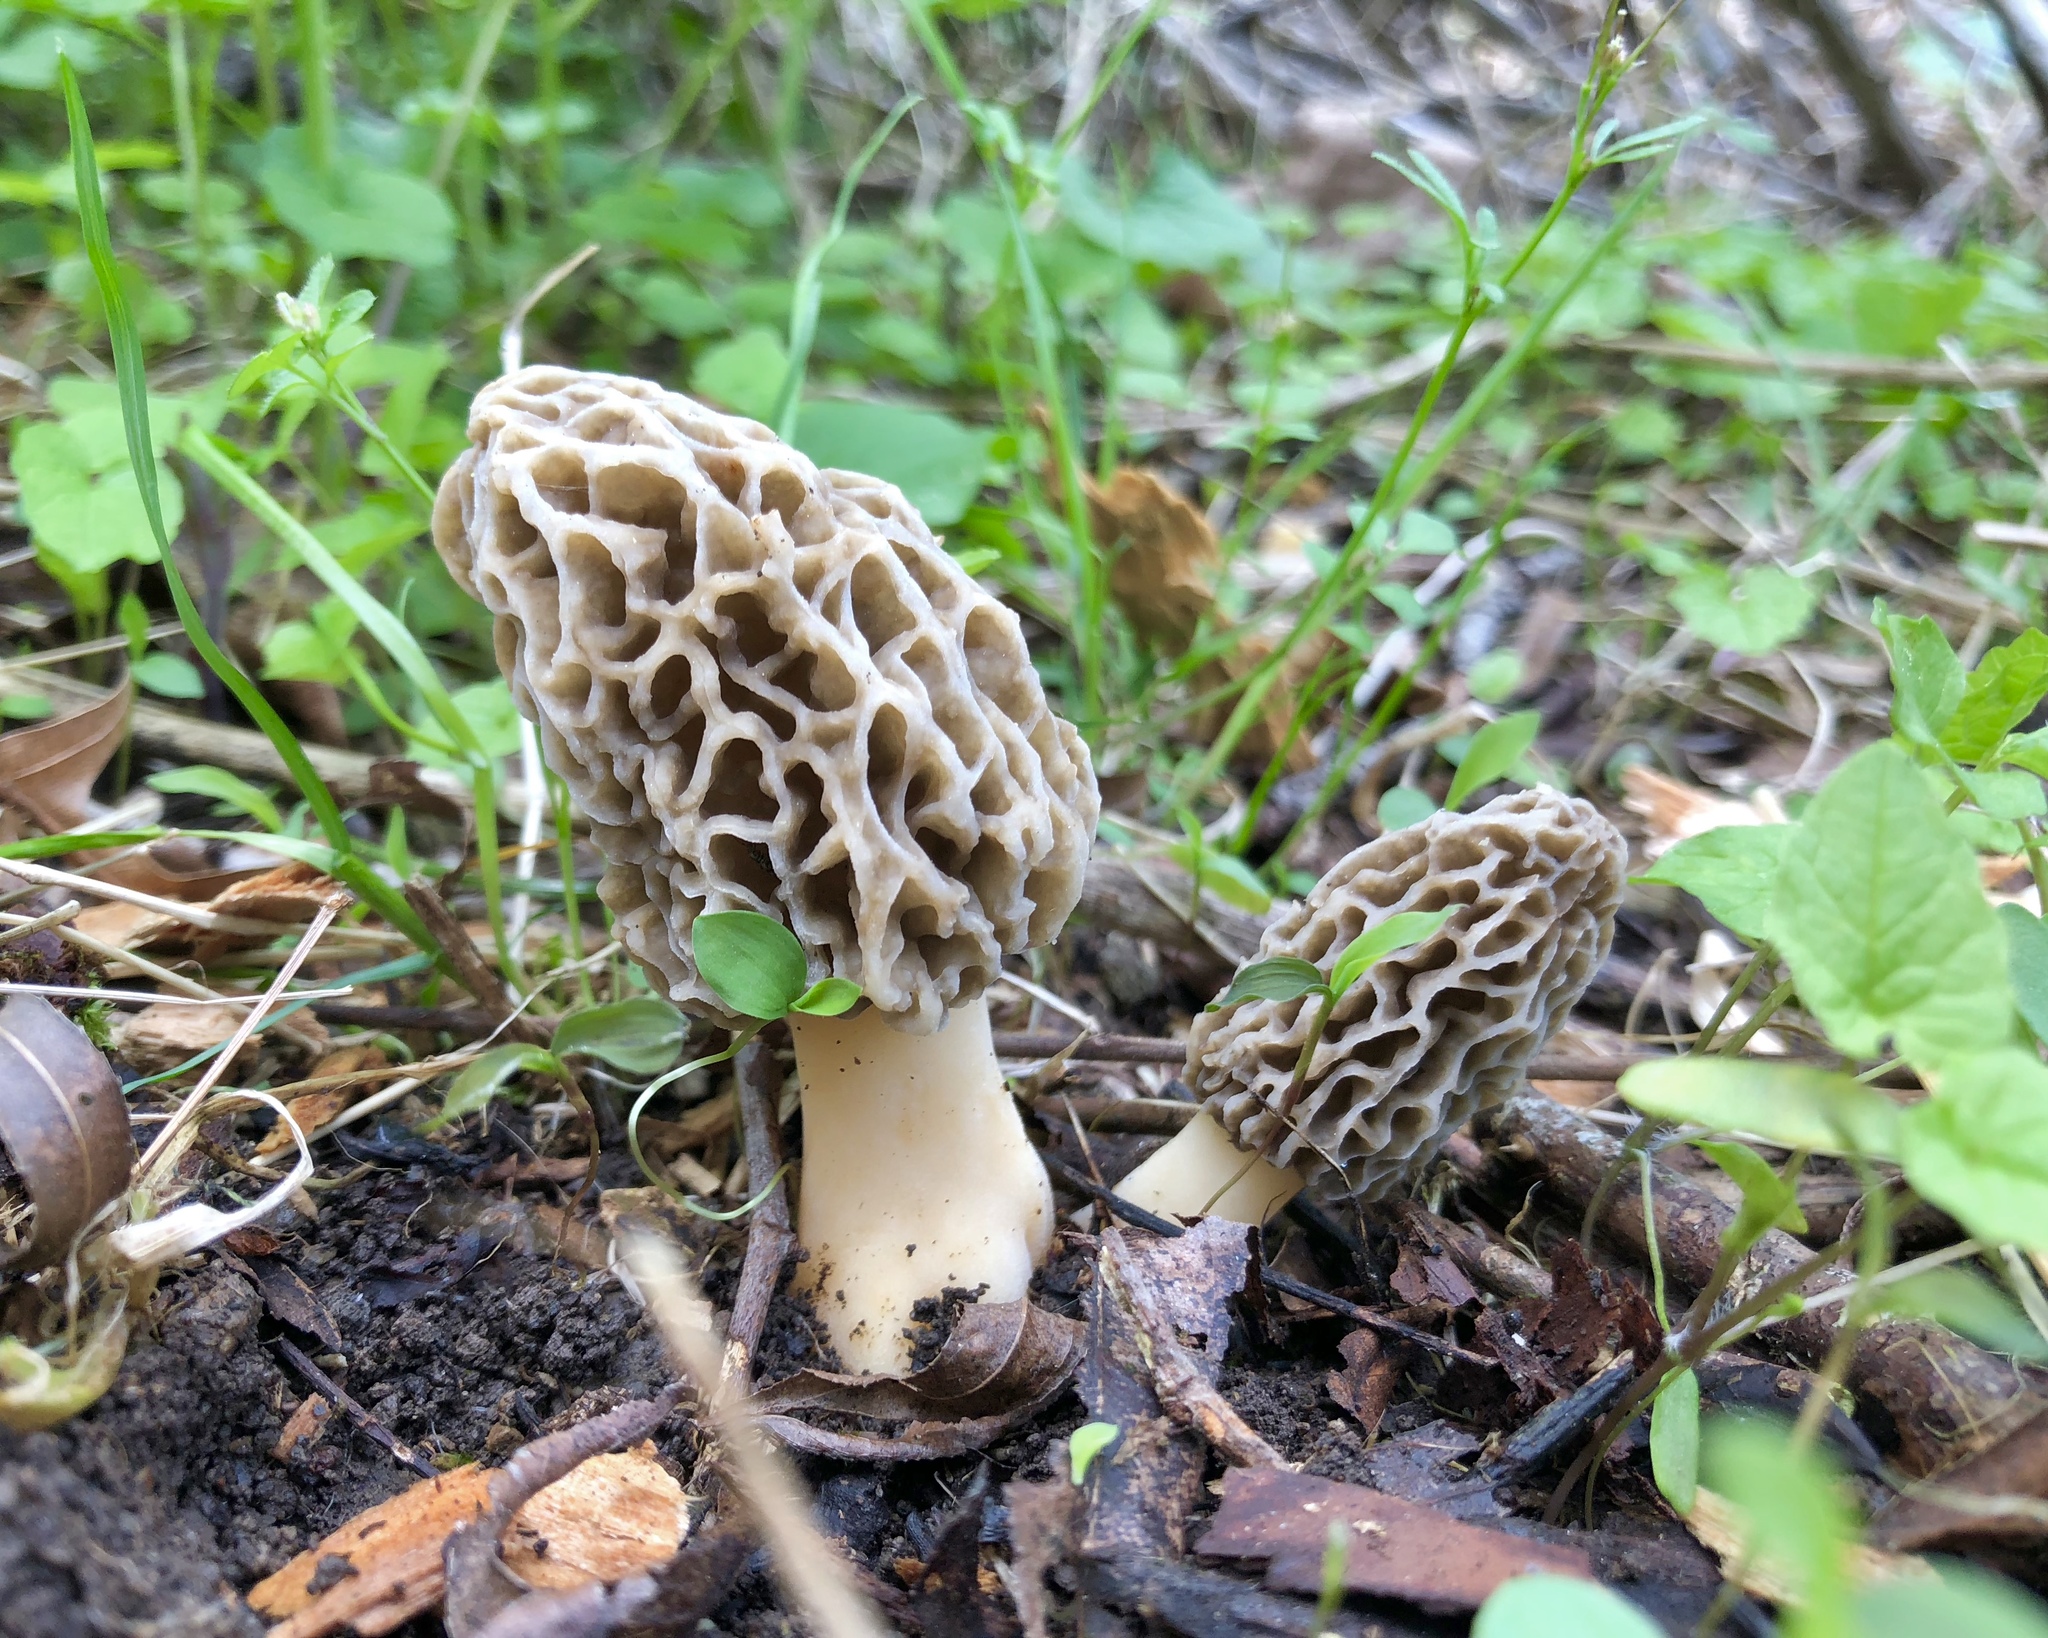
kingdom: Fungi
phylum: Ascomycota
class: Pezizomycetes
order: Pezizales
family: Morchellaceae
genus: Morchella
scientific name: Morchella americana
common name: White morel
